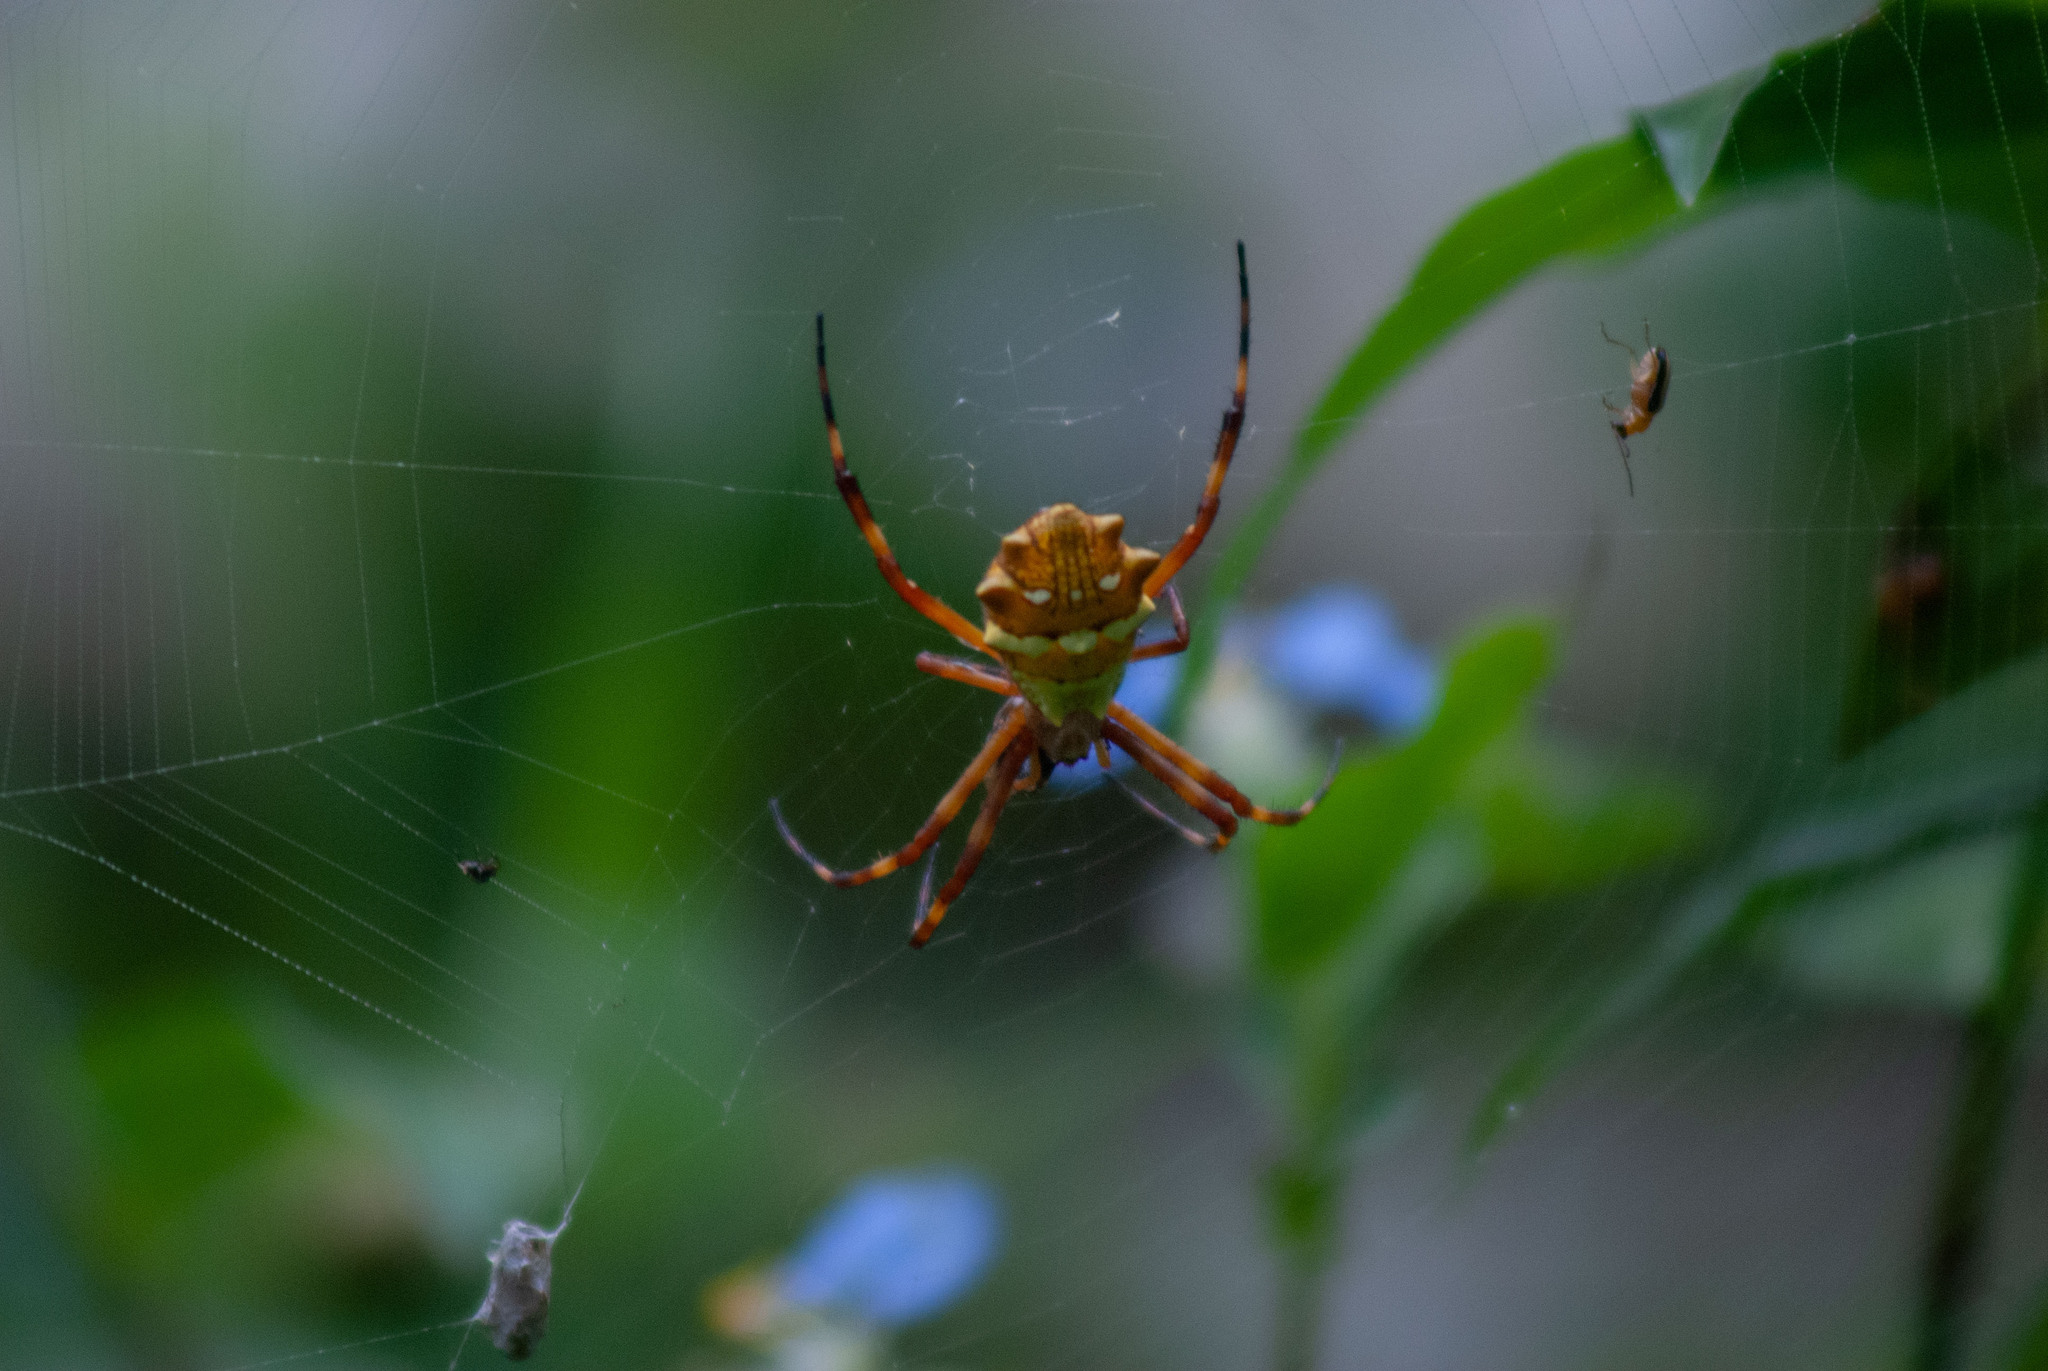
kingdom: Animalia
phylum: Arthropoda
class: Arachnida
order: Araneae
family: Araneidae
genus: Argiope
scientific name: Argiope argentata
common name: Orb weavers
